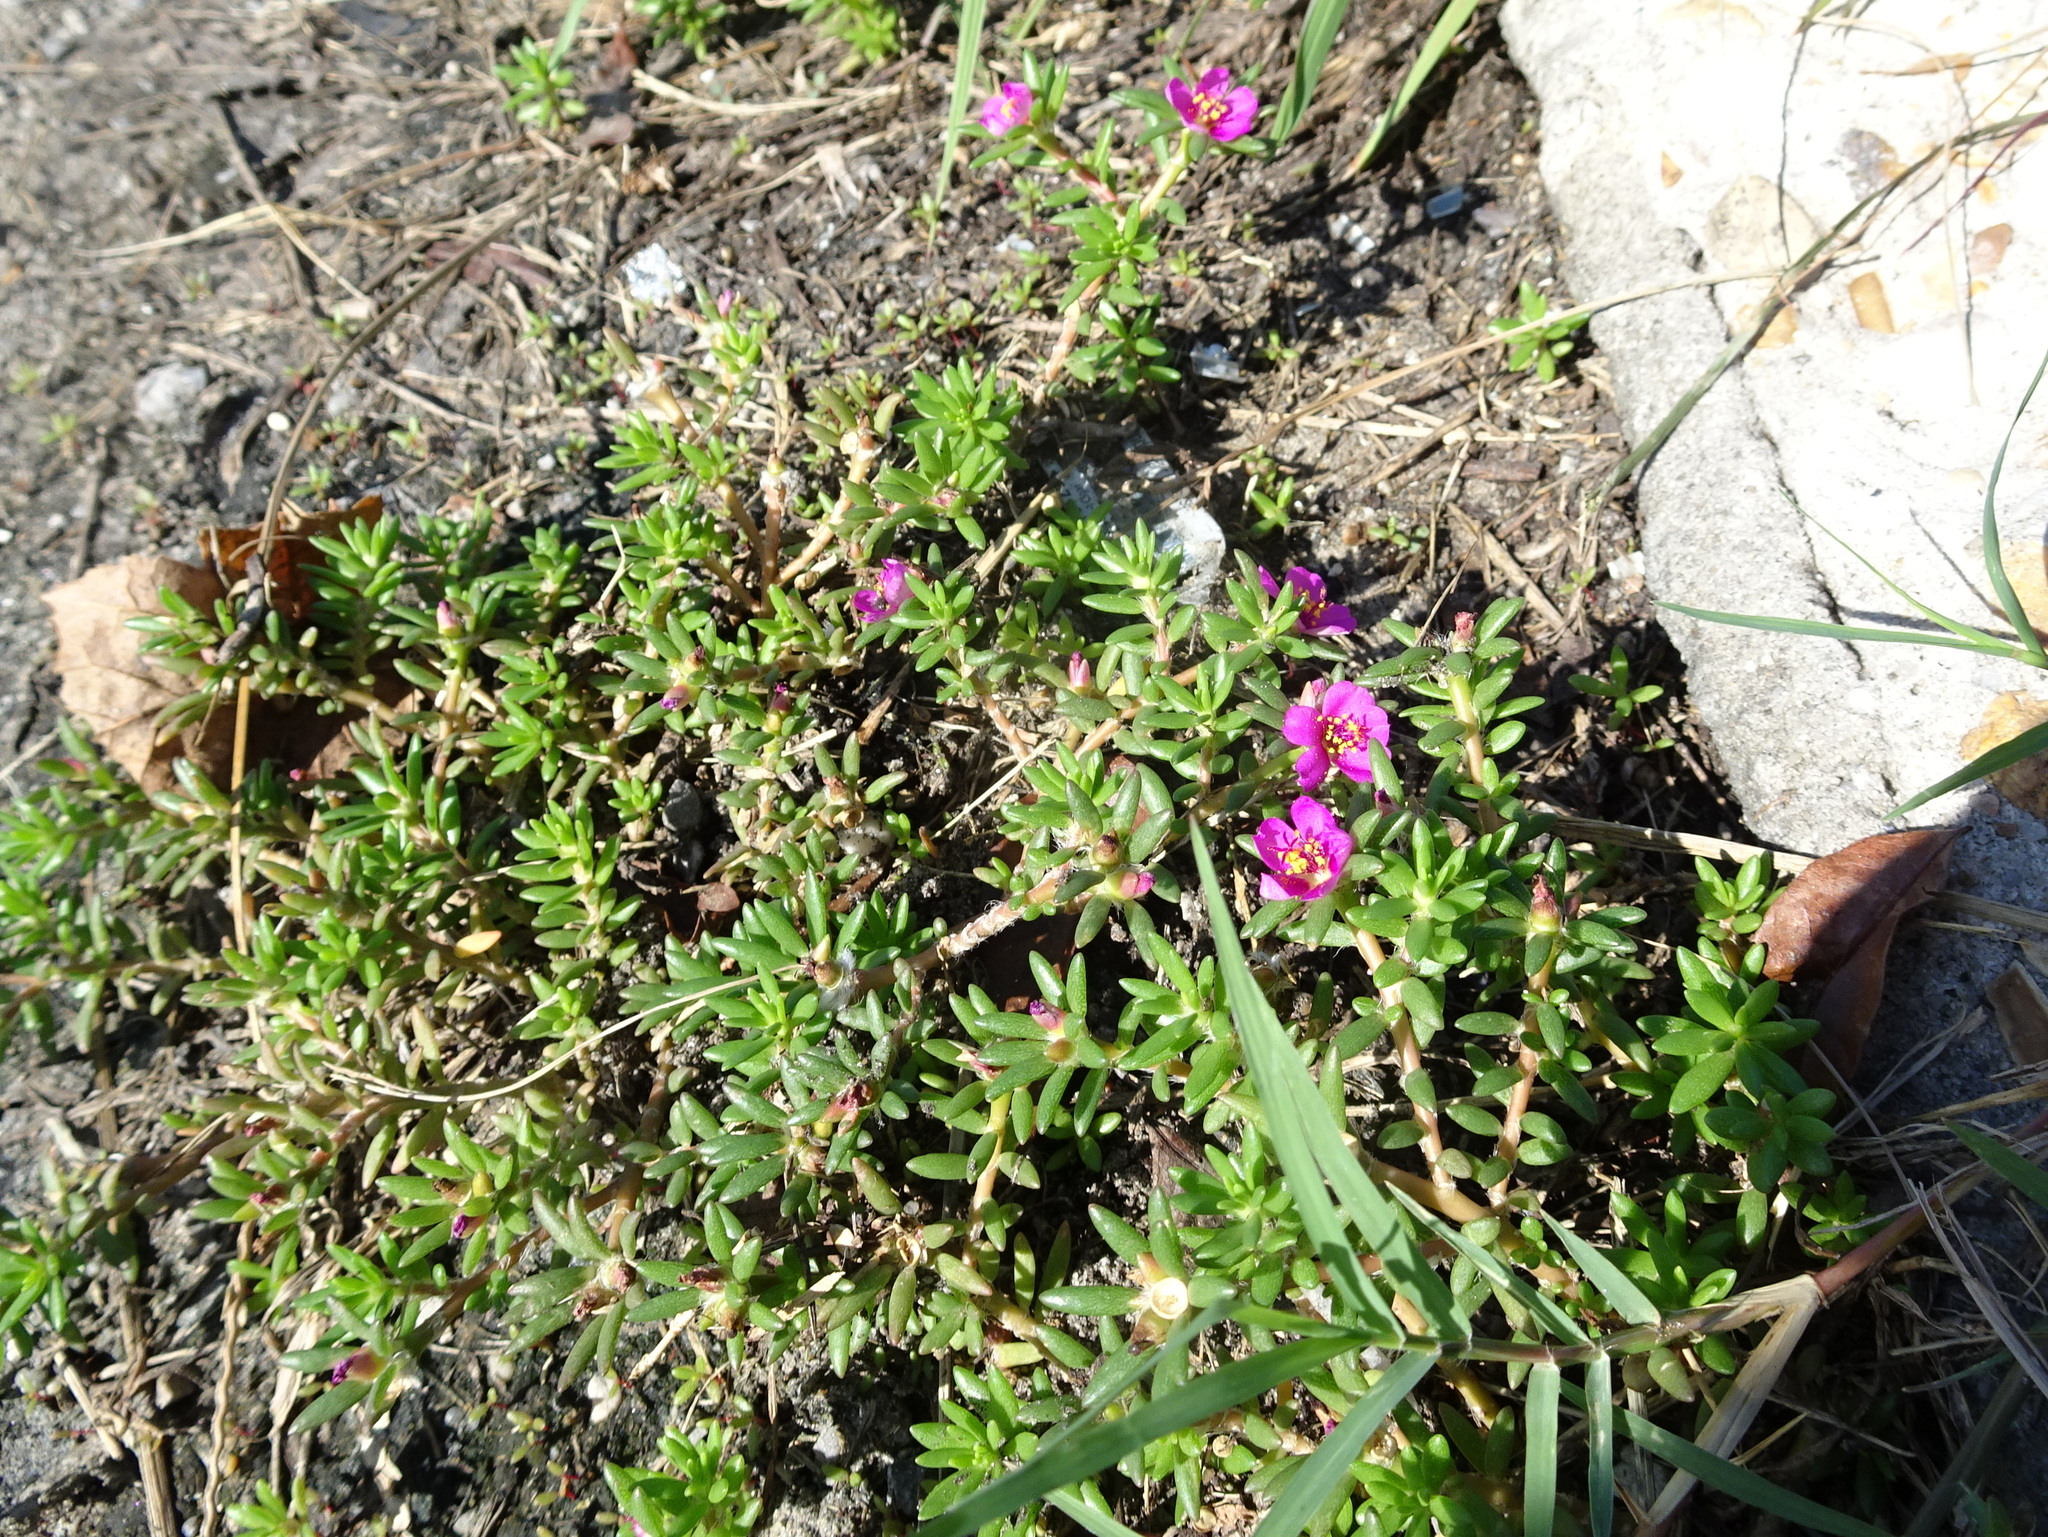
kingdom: Plantae
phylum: Tracheophyta
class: Magnoliopsida
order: Caryophyllales
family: Portulacaceae
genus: Portulaca
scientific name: Portulaca pilosa
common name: Kiss me quick
